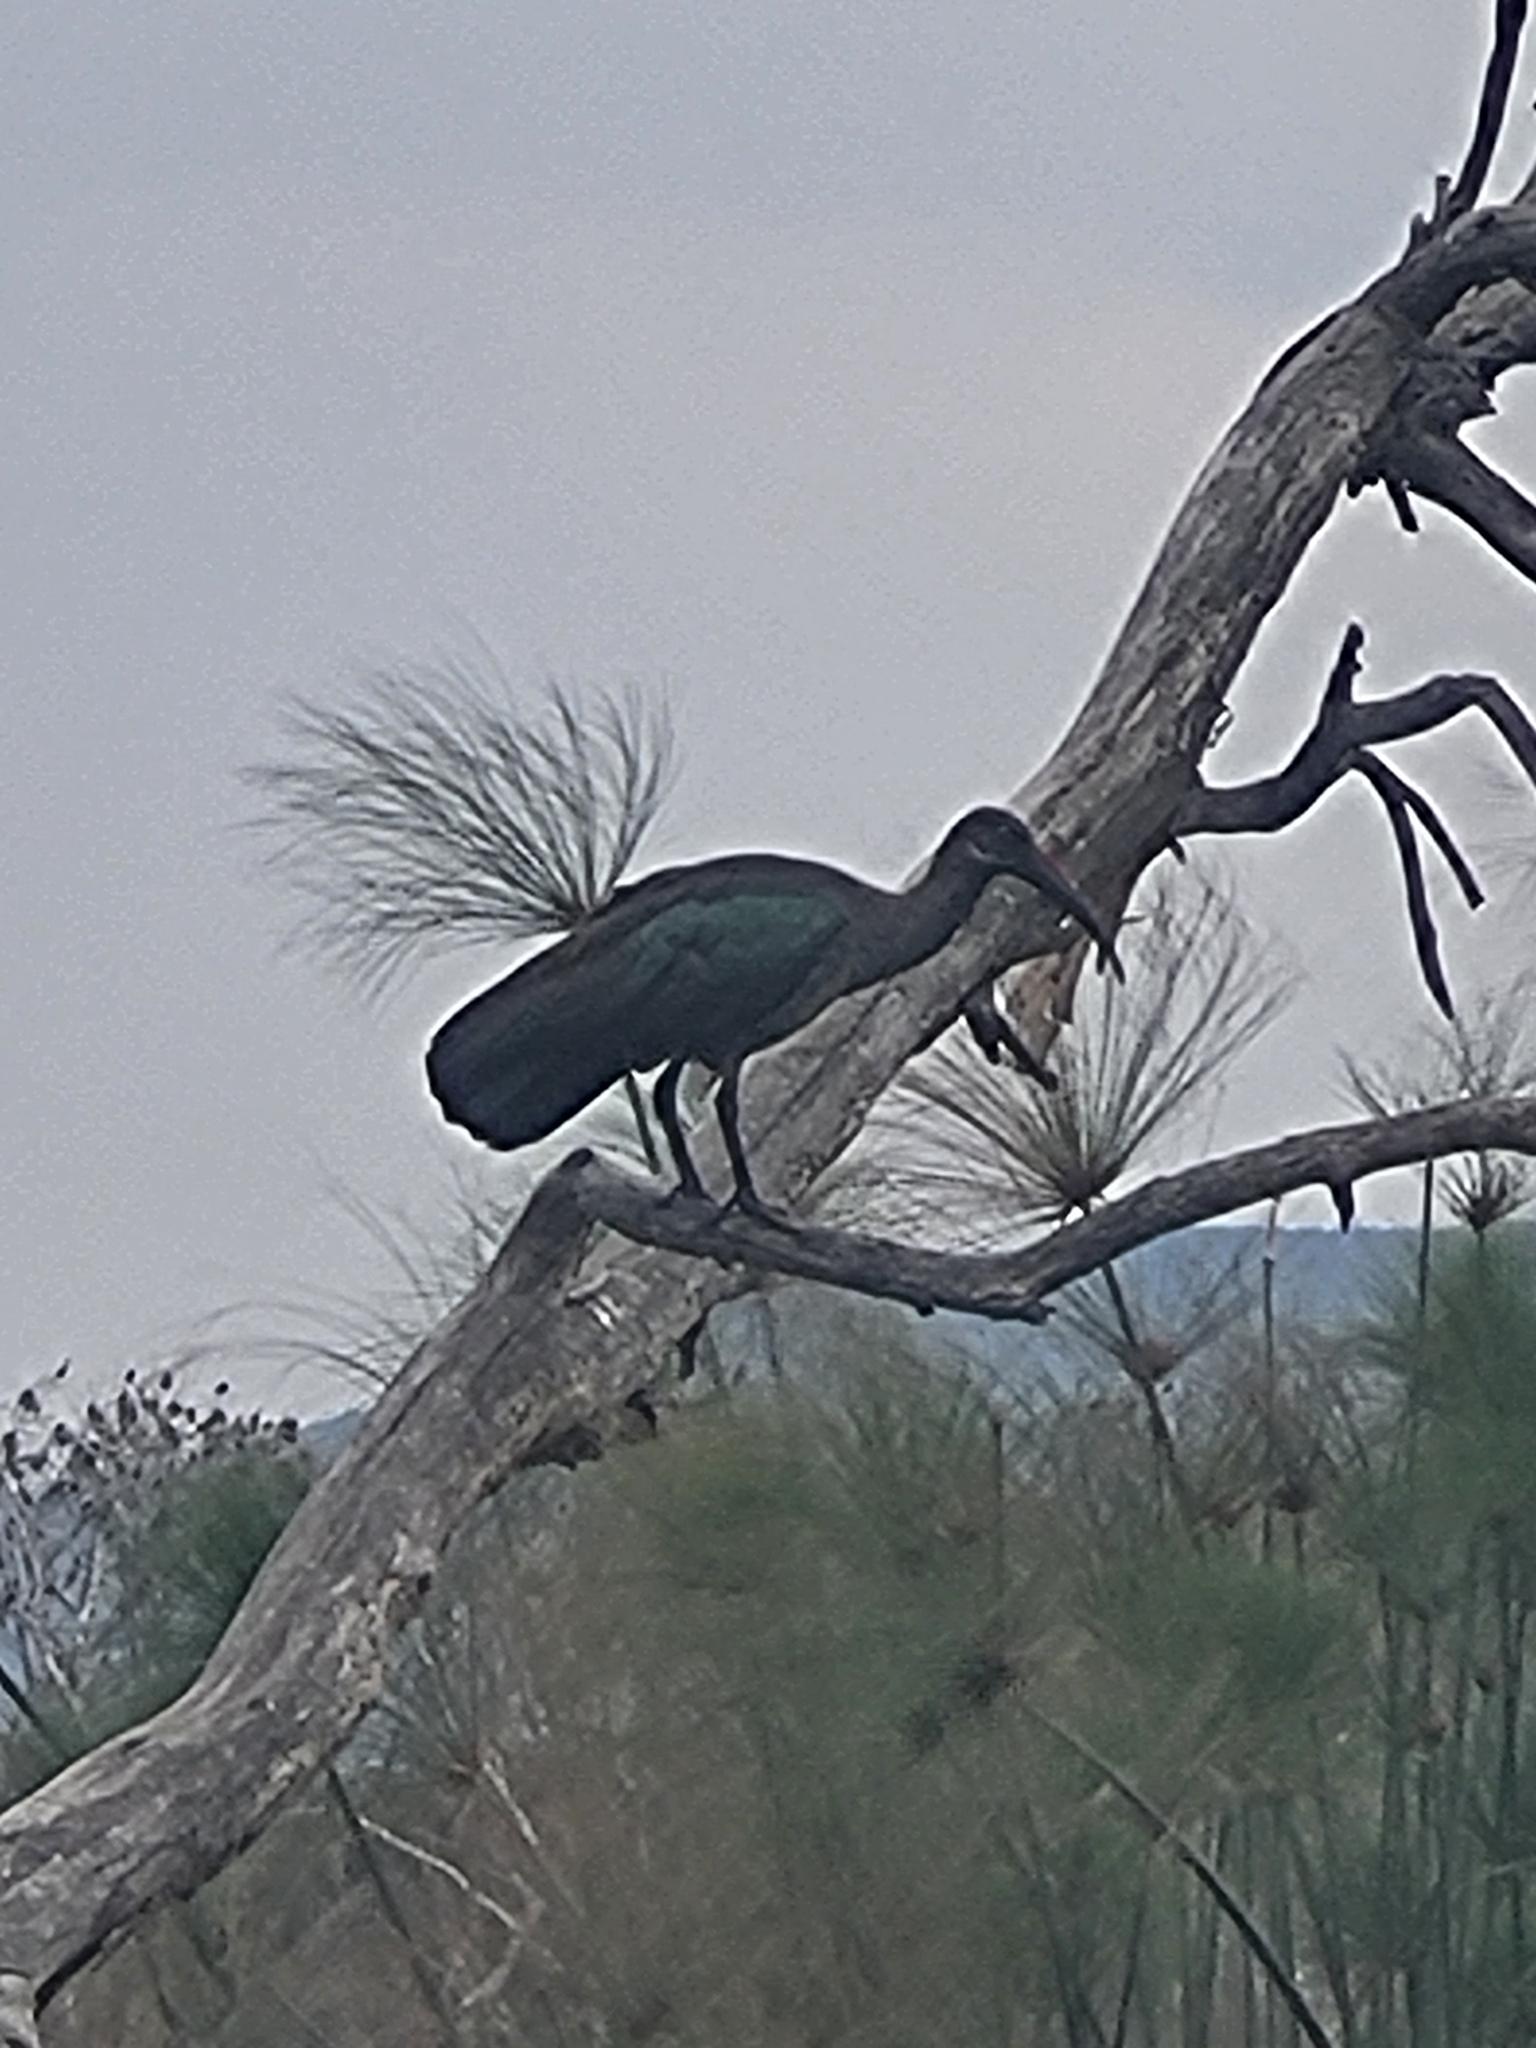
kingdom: Animalia
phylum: Chordata
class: Aves
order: Pelecaniformes
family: Threskiornithidae
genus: Bostrychia
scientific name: Bostrychia hagedash
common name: Hadada ibis
